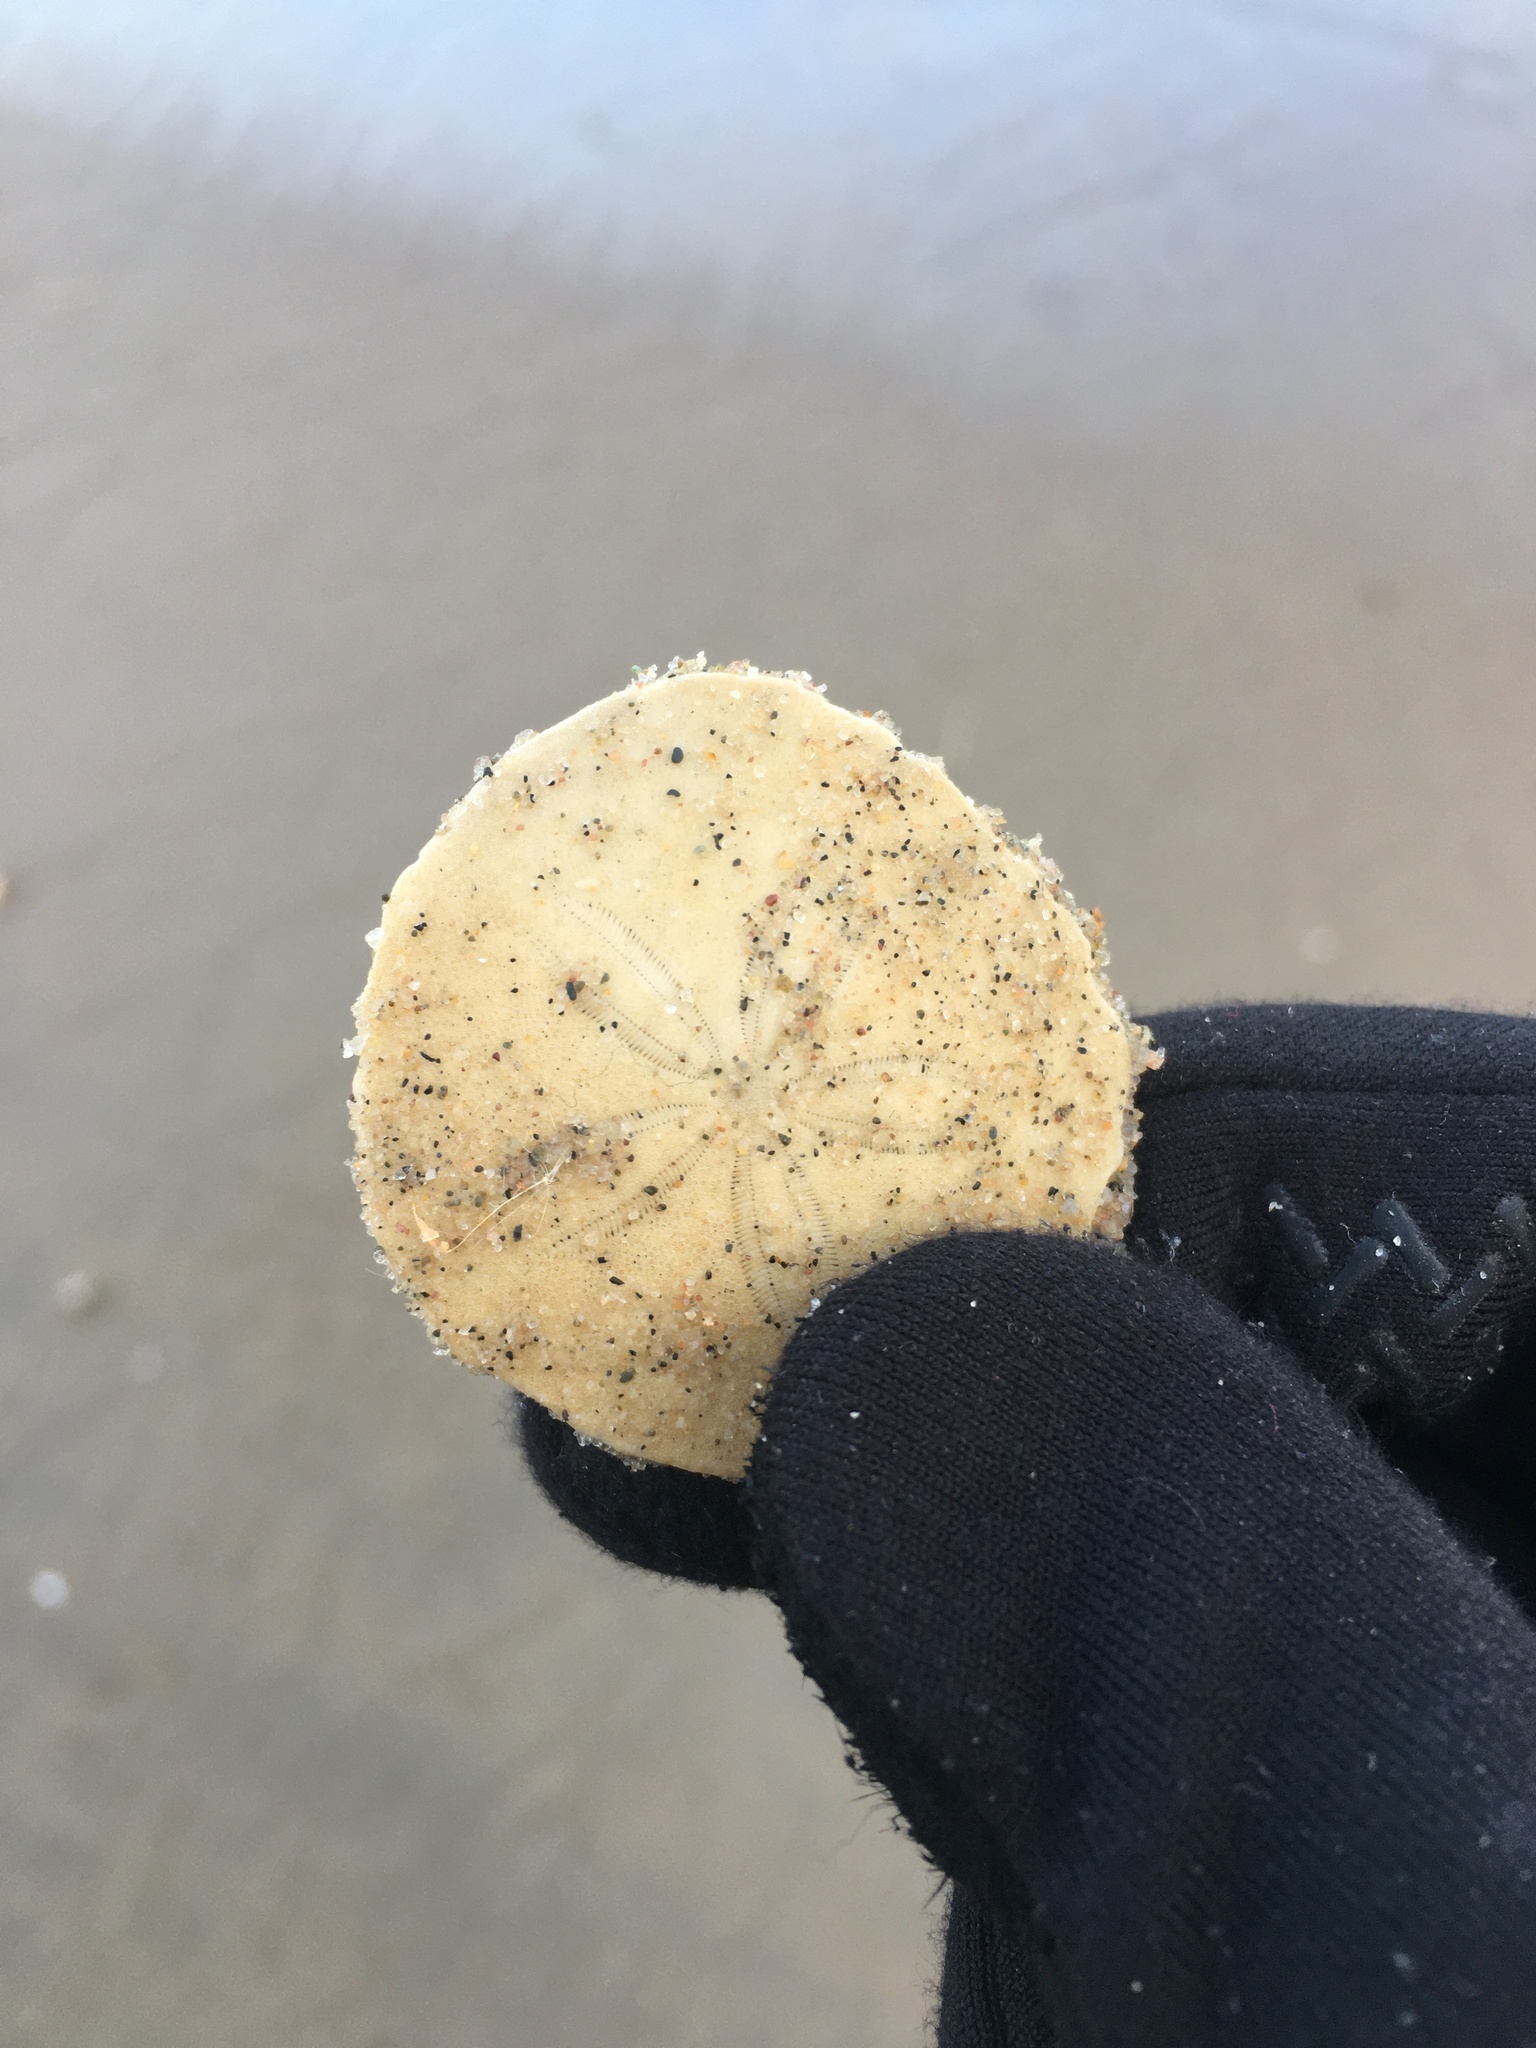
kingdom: Animalia
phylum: Echinodermata
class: Echinoidea
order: Echinolampadacea
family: Echinarachniidae
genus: Echinarachnius
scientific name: Echinarachnius parma
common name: Common sand dollar
